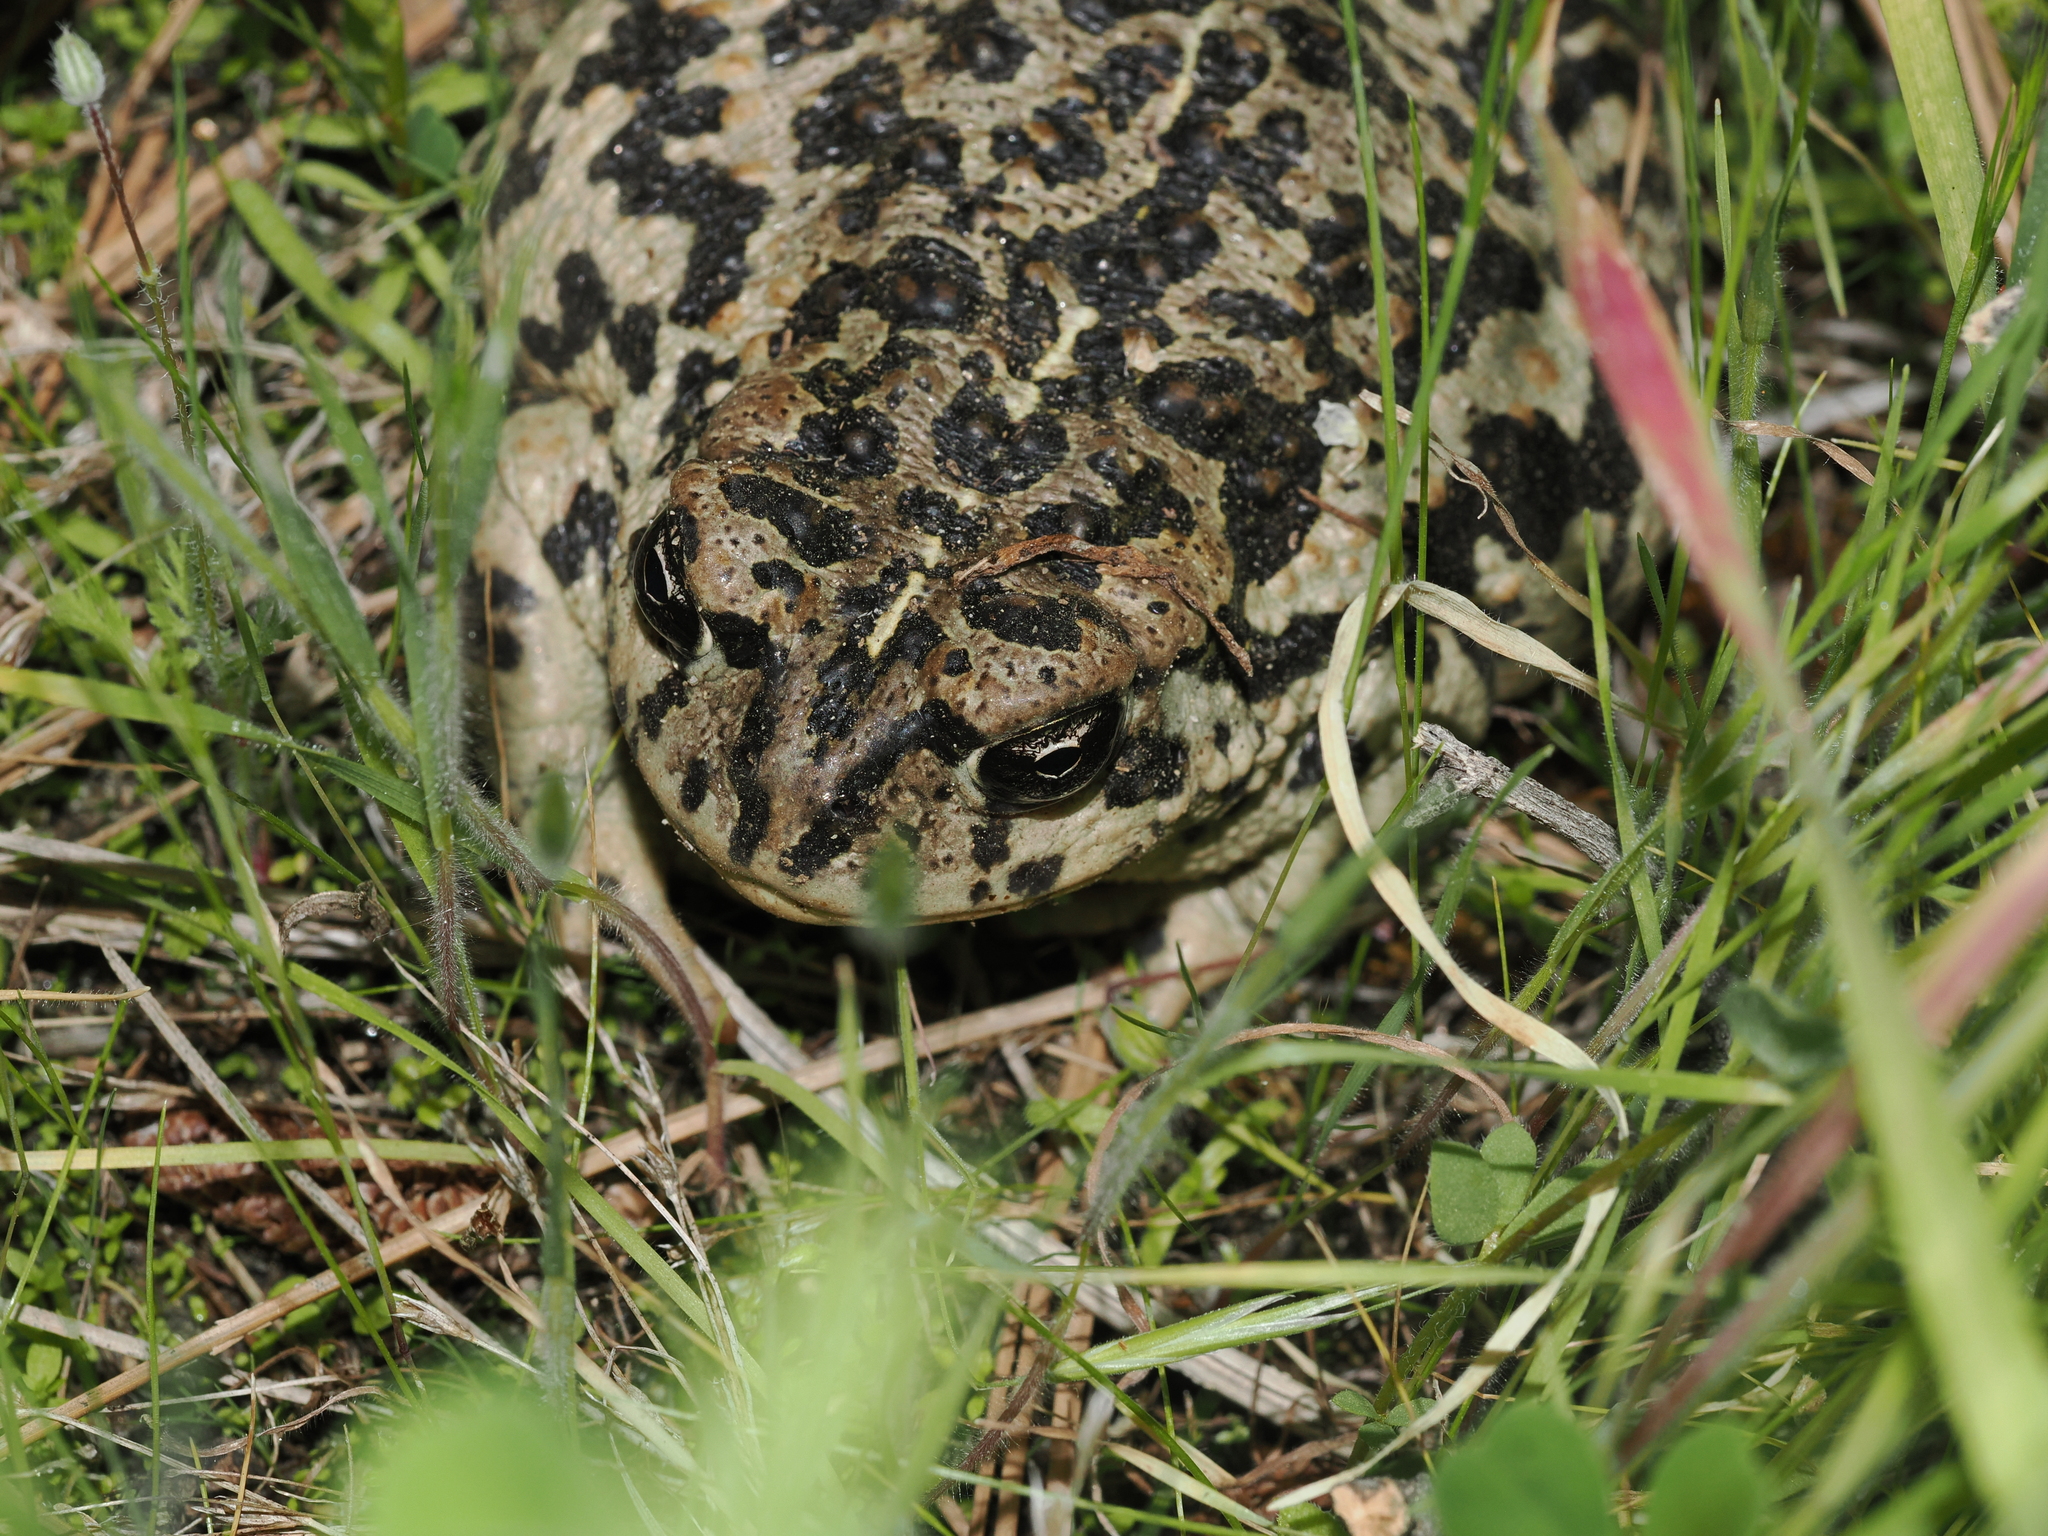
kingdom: Animalia
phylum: Chordata
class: Amphibia
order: Anura
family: Bufonidae
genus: Anaxyrus
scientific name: Anaxyrus boreas
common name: Western toad
